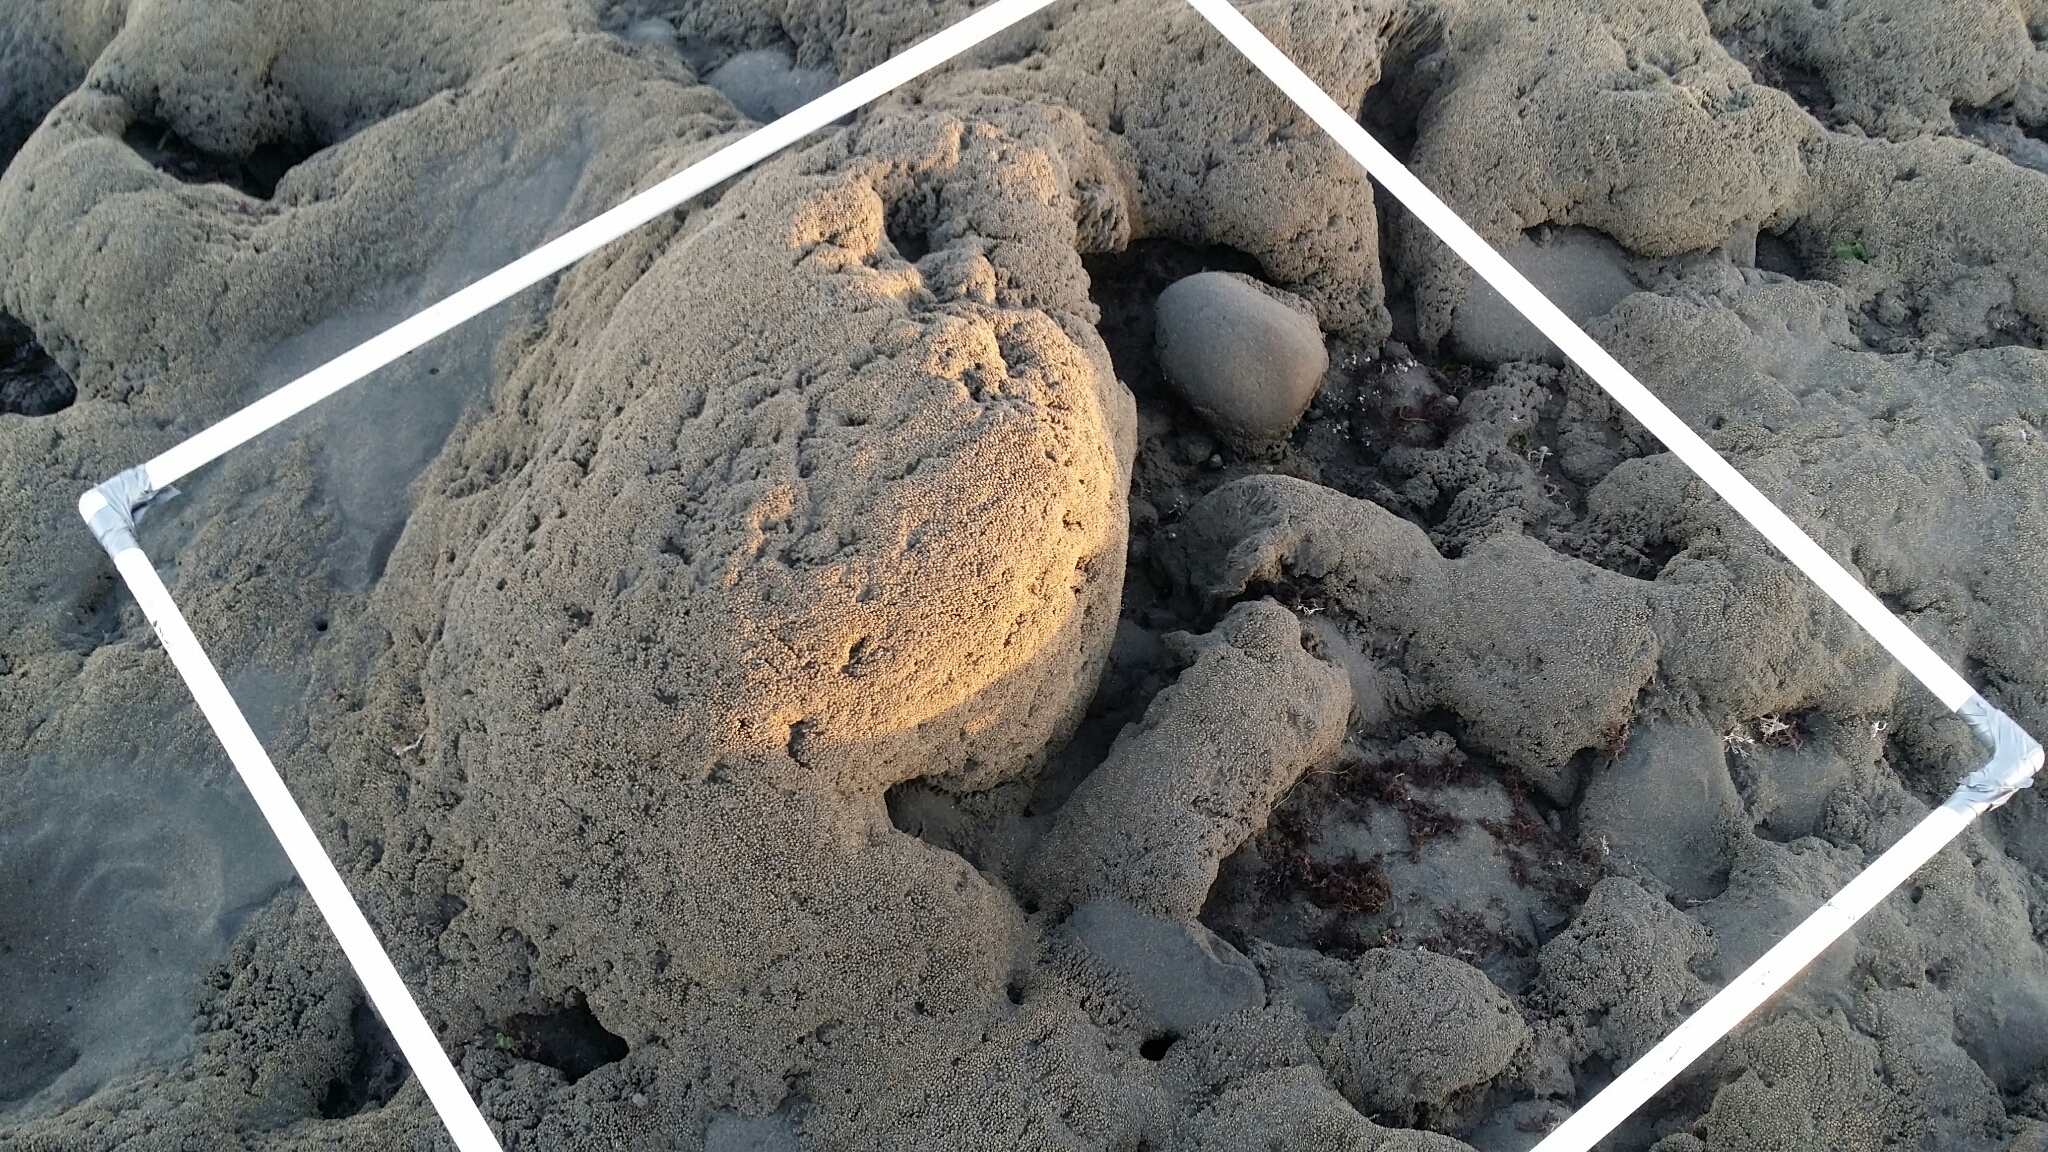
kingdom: Animalia
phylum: Annelida
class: Polychaeta
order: Sabellida
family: Sabellariidae
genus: Neosabellaria
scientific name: Neosabellaria kaiparaensis
